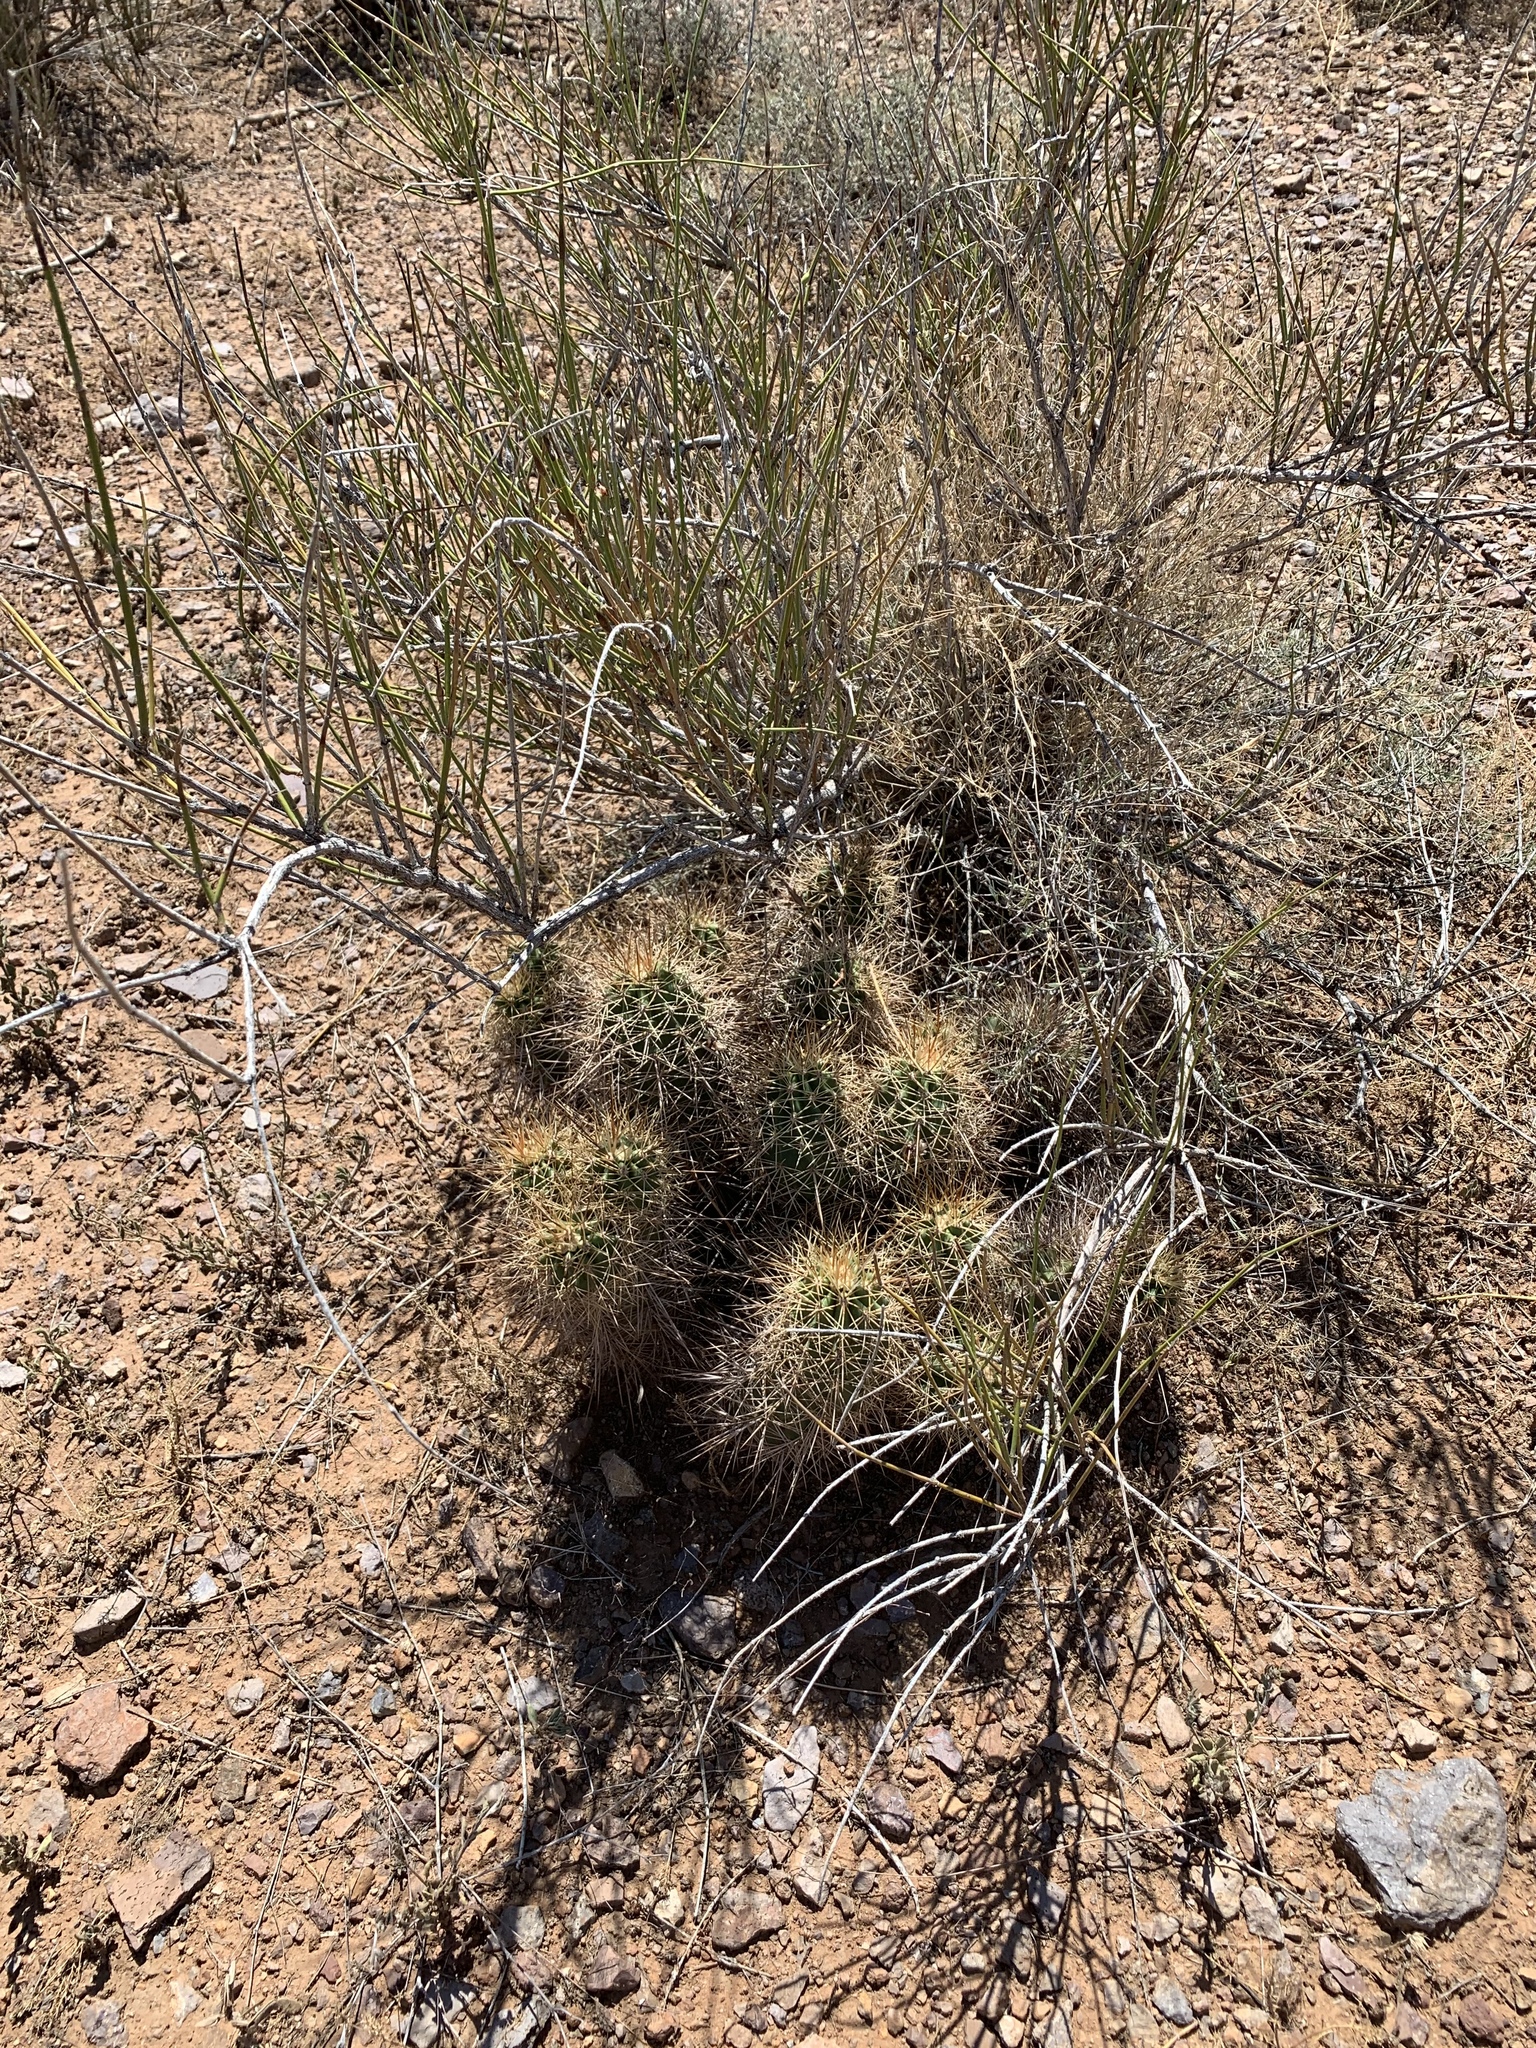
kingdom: Plantae
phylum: Tracheophyta
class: Magnoliopsida
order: Caryophyllales
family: Cactaceae
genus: Echinocereus
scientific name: Echinocereus coccineus
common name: Scarlet hedgehog cactus
